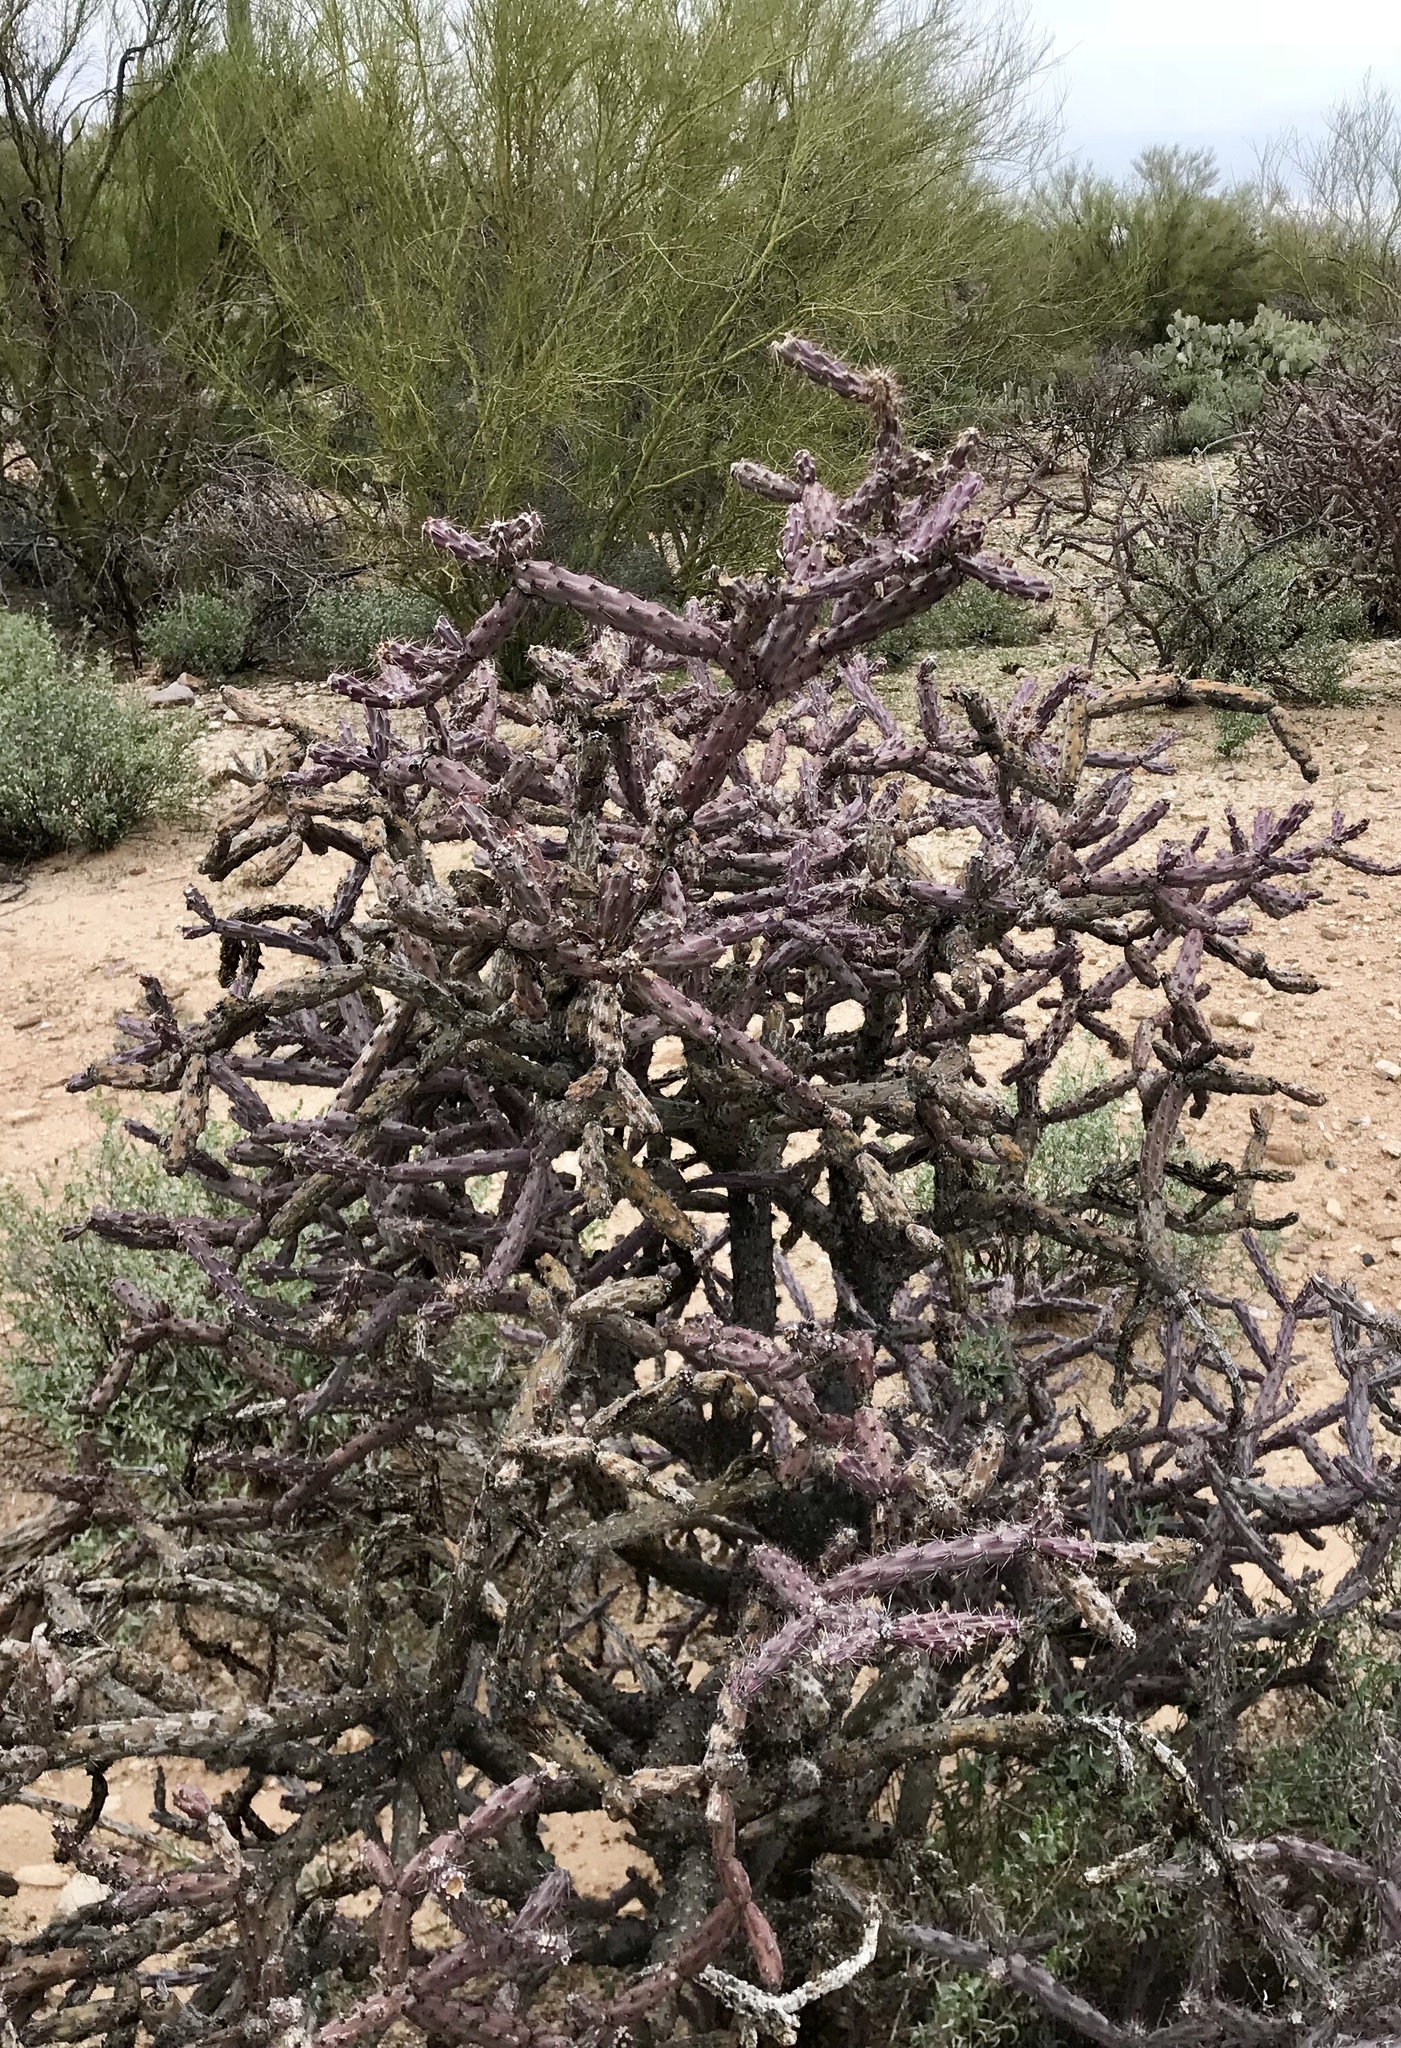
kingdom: Plantae
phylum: Tracheophyta
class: Magnoliopsida
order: Caryophyllales
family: Cactaceae
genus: Cylindropuntia
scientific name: Cylindropuntia thurberi
